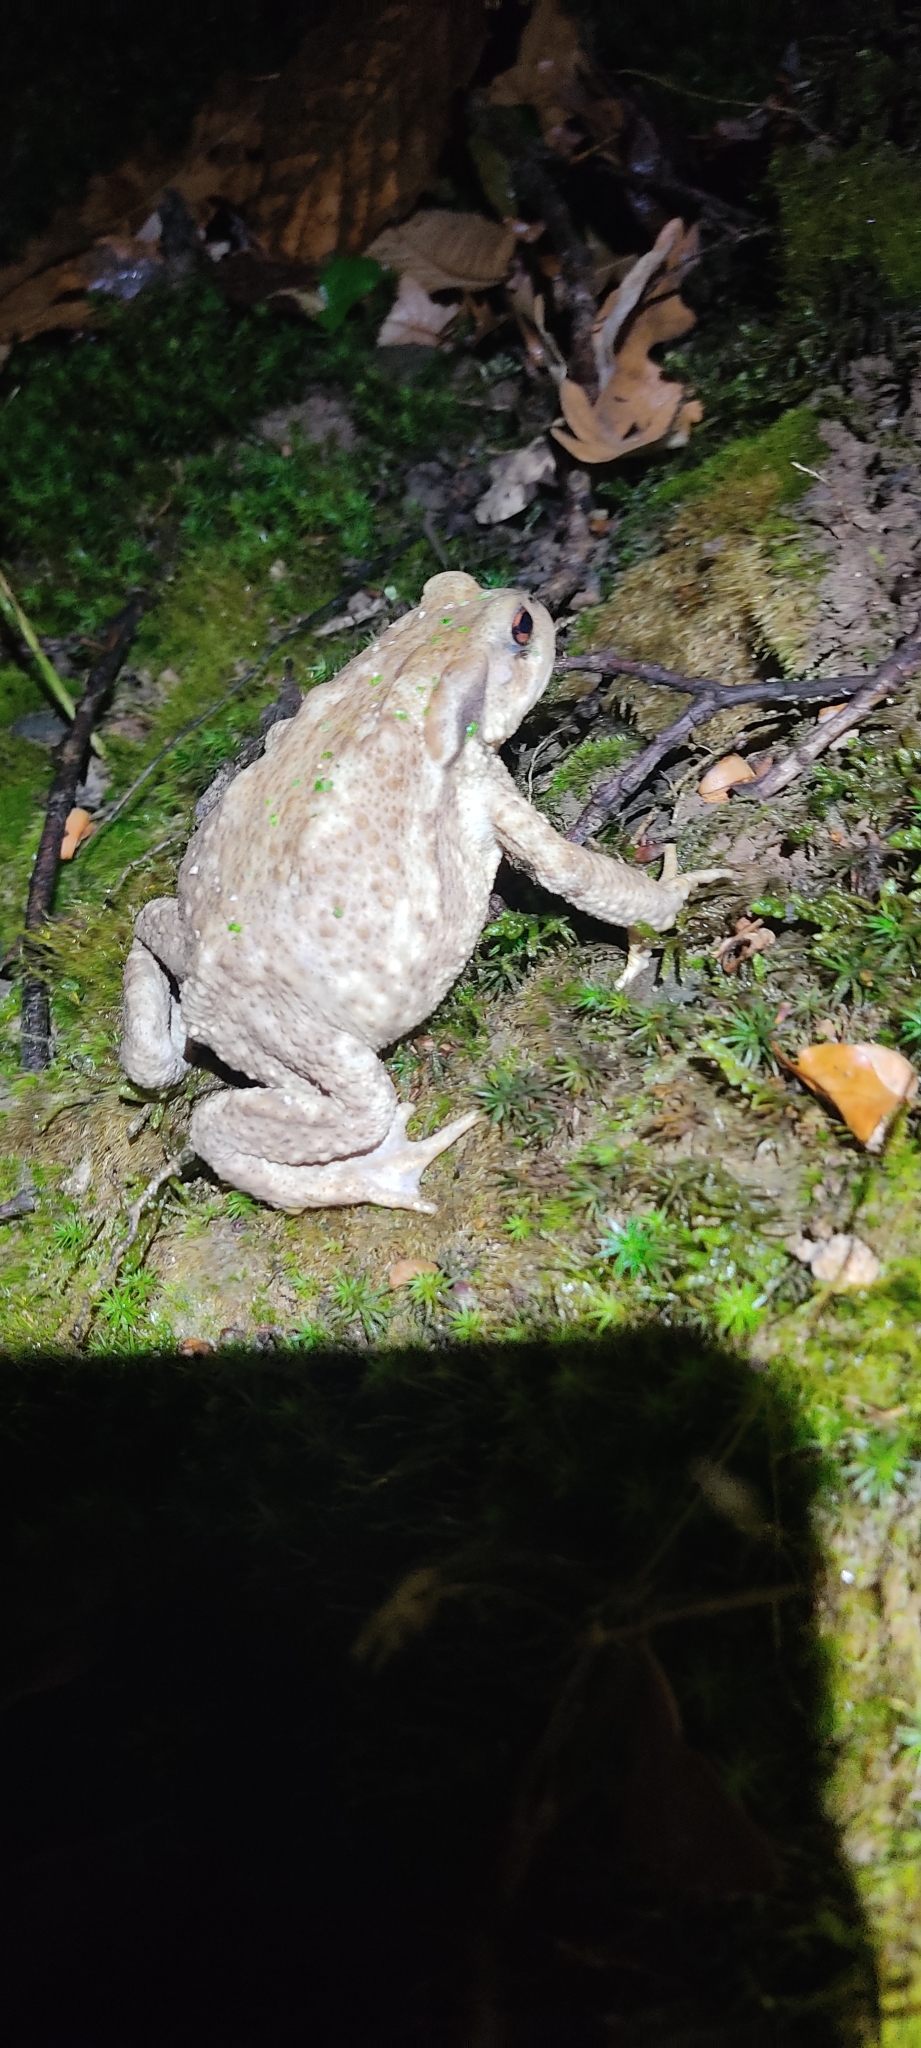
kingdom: Animalia
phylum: Chordata
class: Amphibia
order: Anura
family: Bufonidae
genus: Bufo
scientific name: Bufo spinosus
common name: Western common toad
